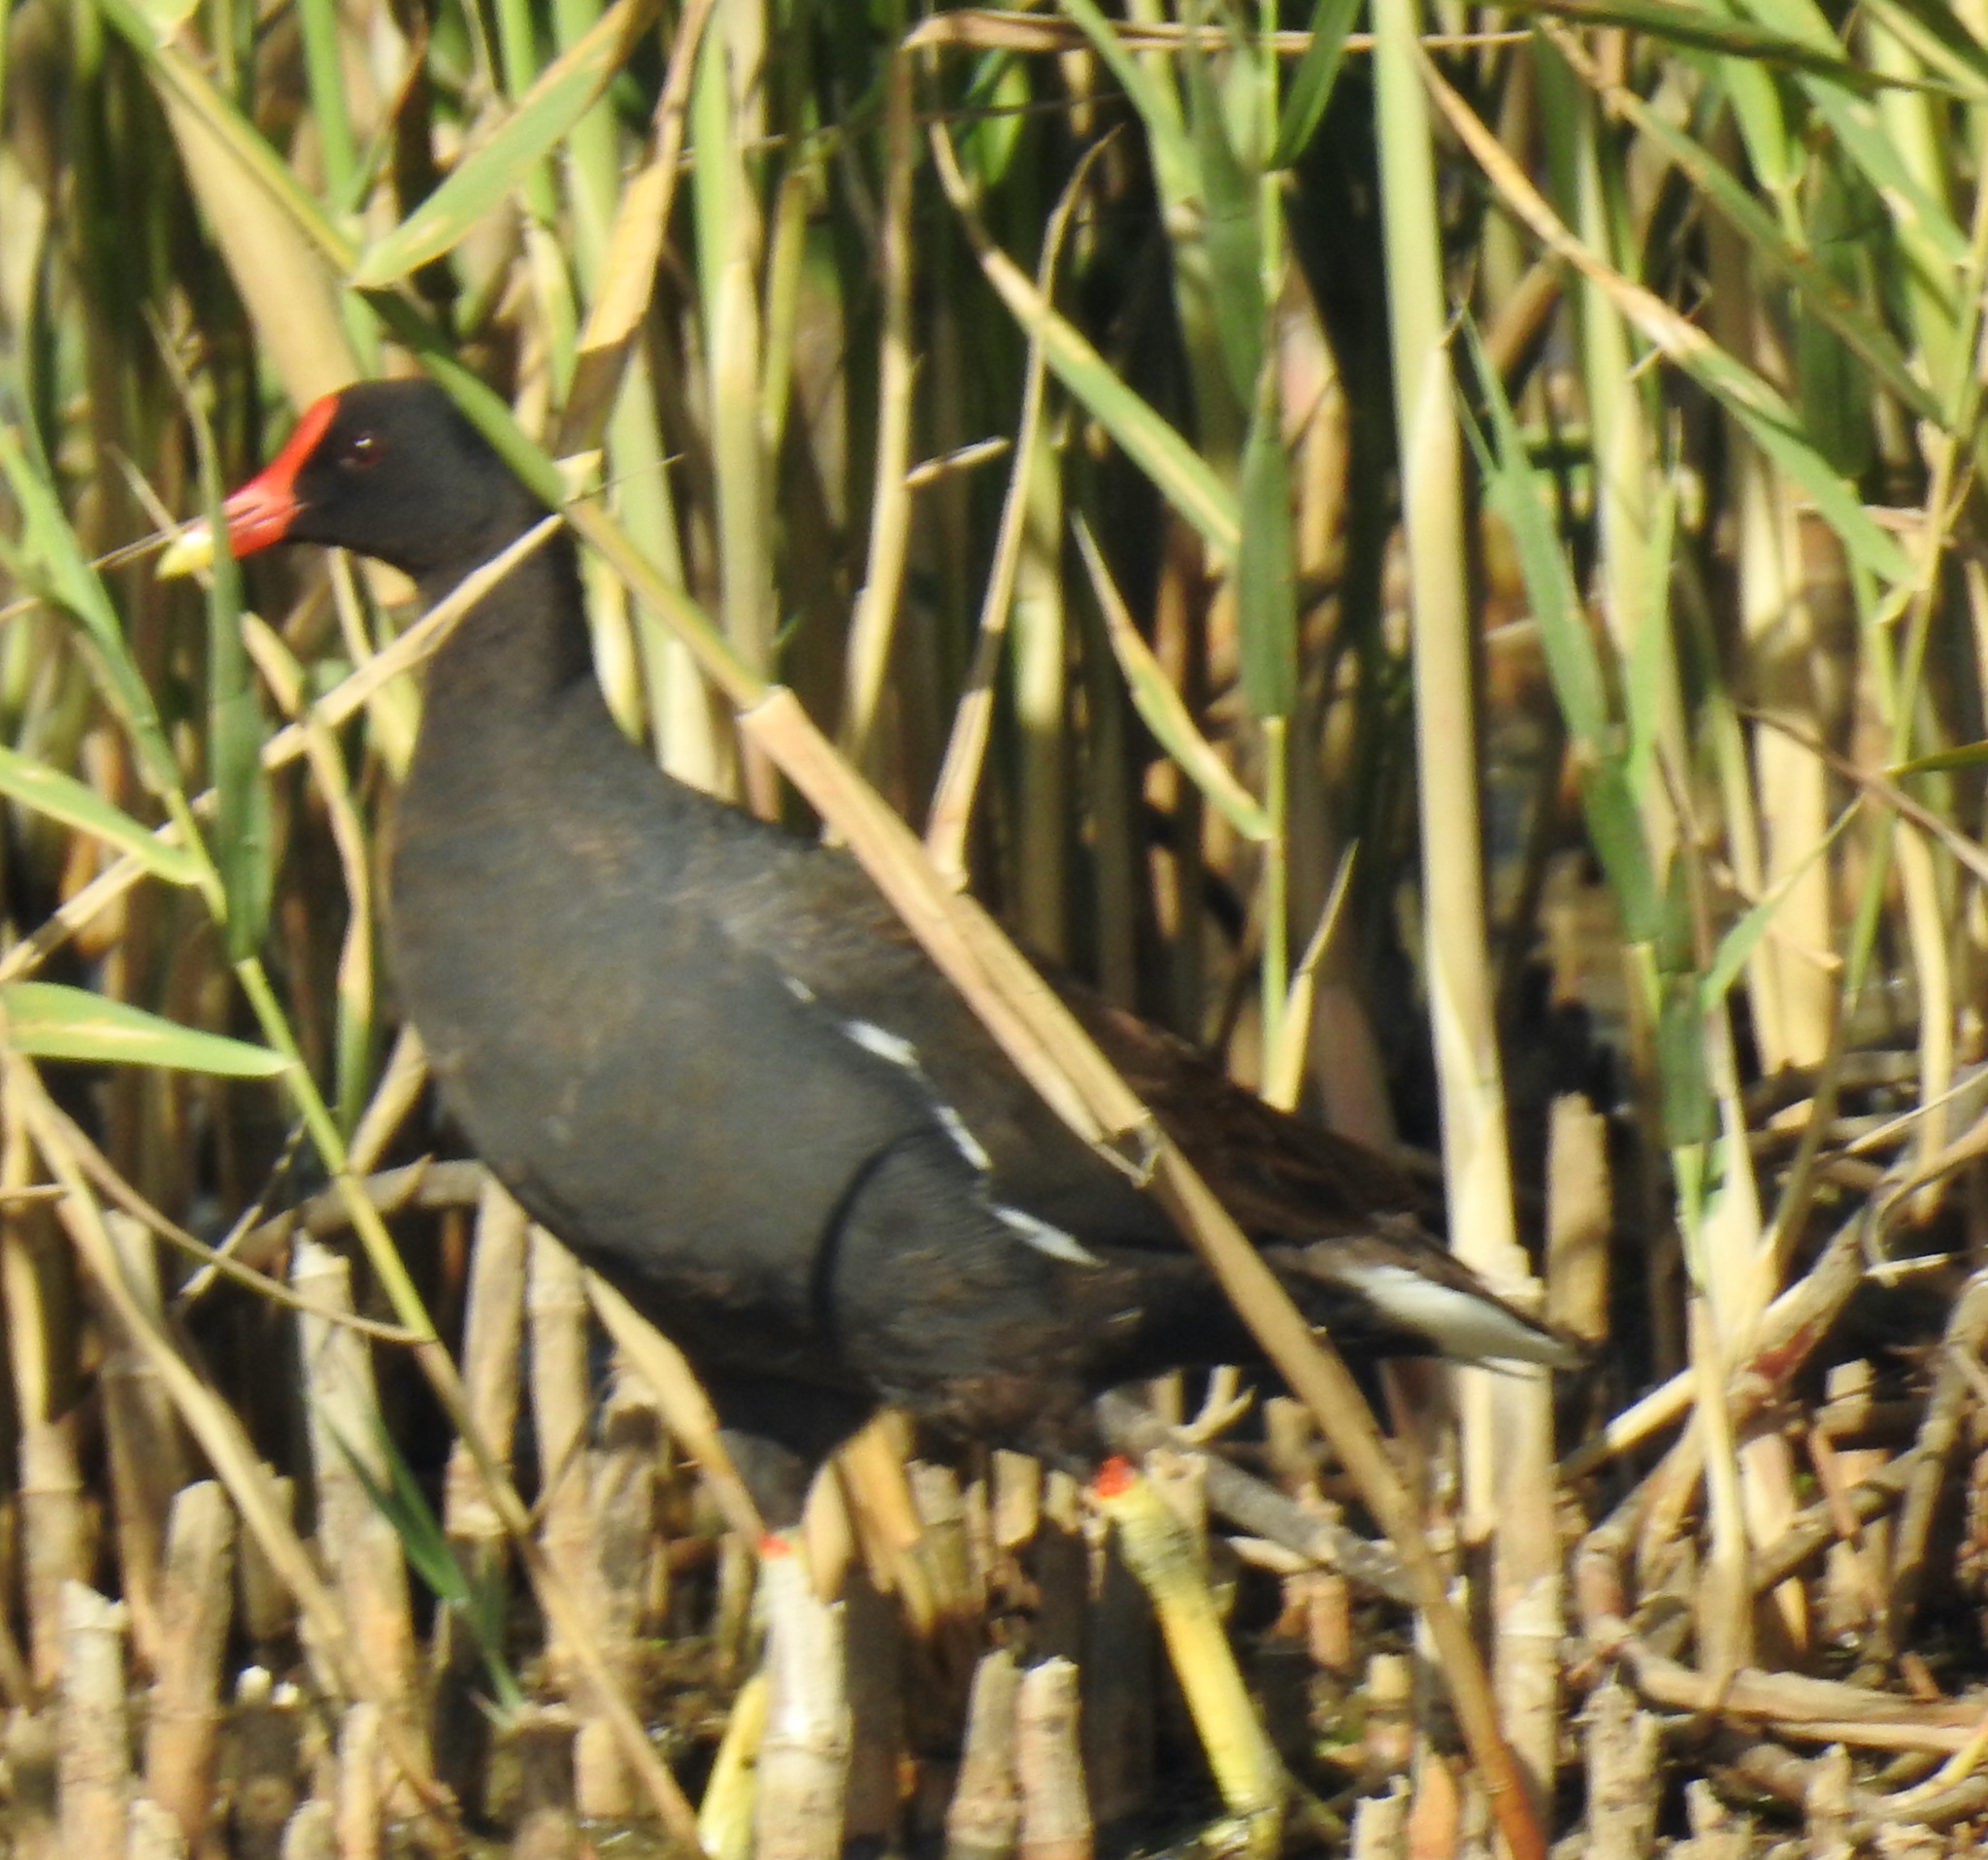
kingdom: Animalia
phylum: Chordata
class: Aves
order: Gruiformes
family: Rallidae
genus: Gallinula
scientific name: Gallinula chloropus
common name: Common moorhen
